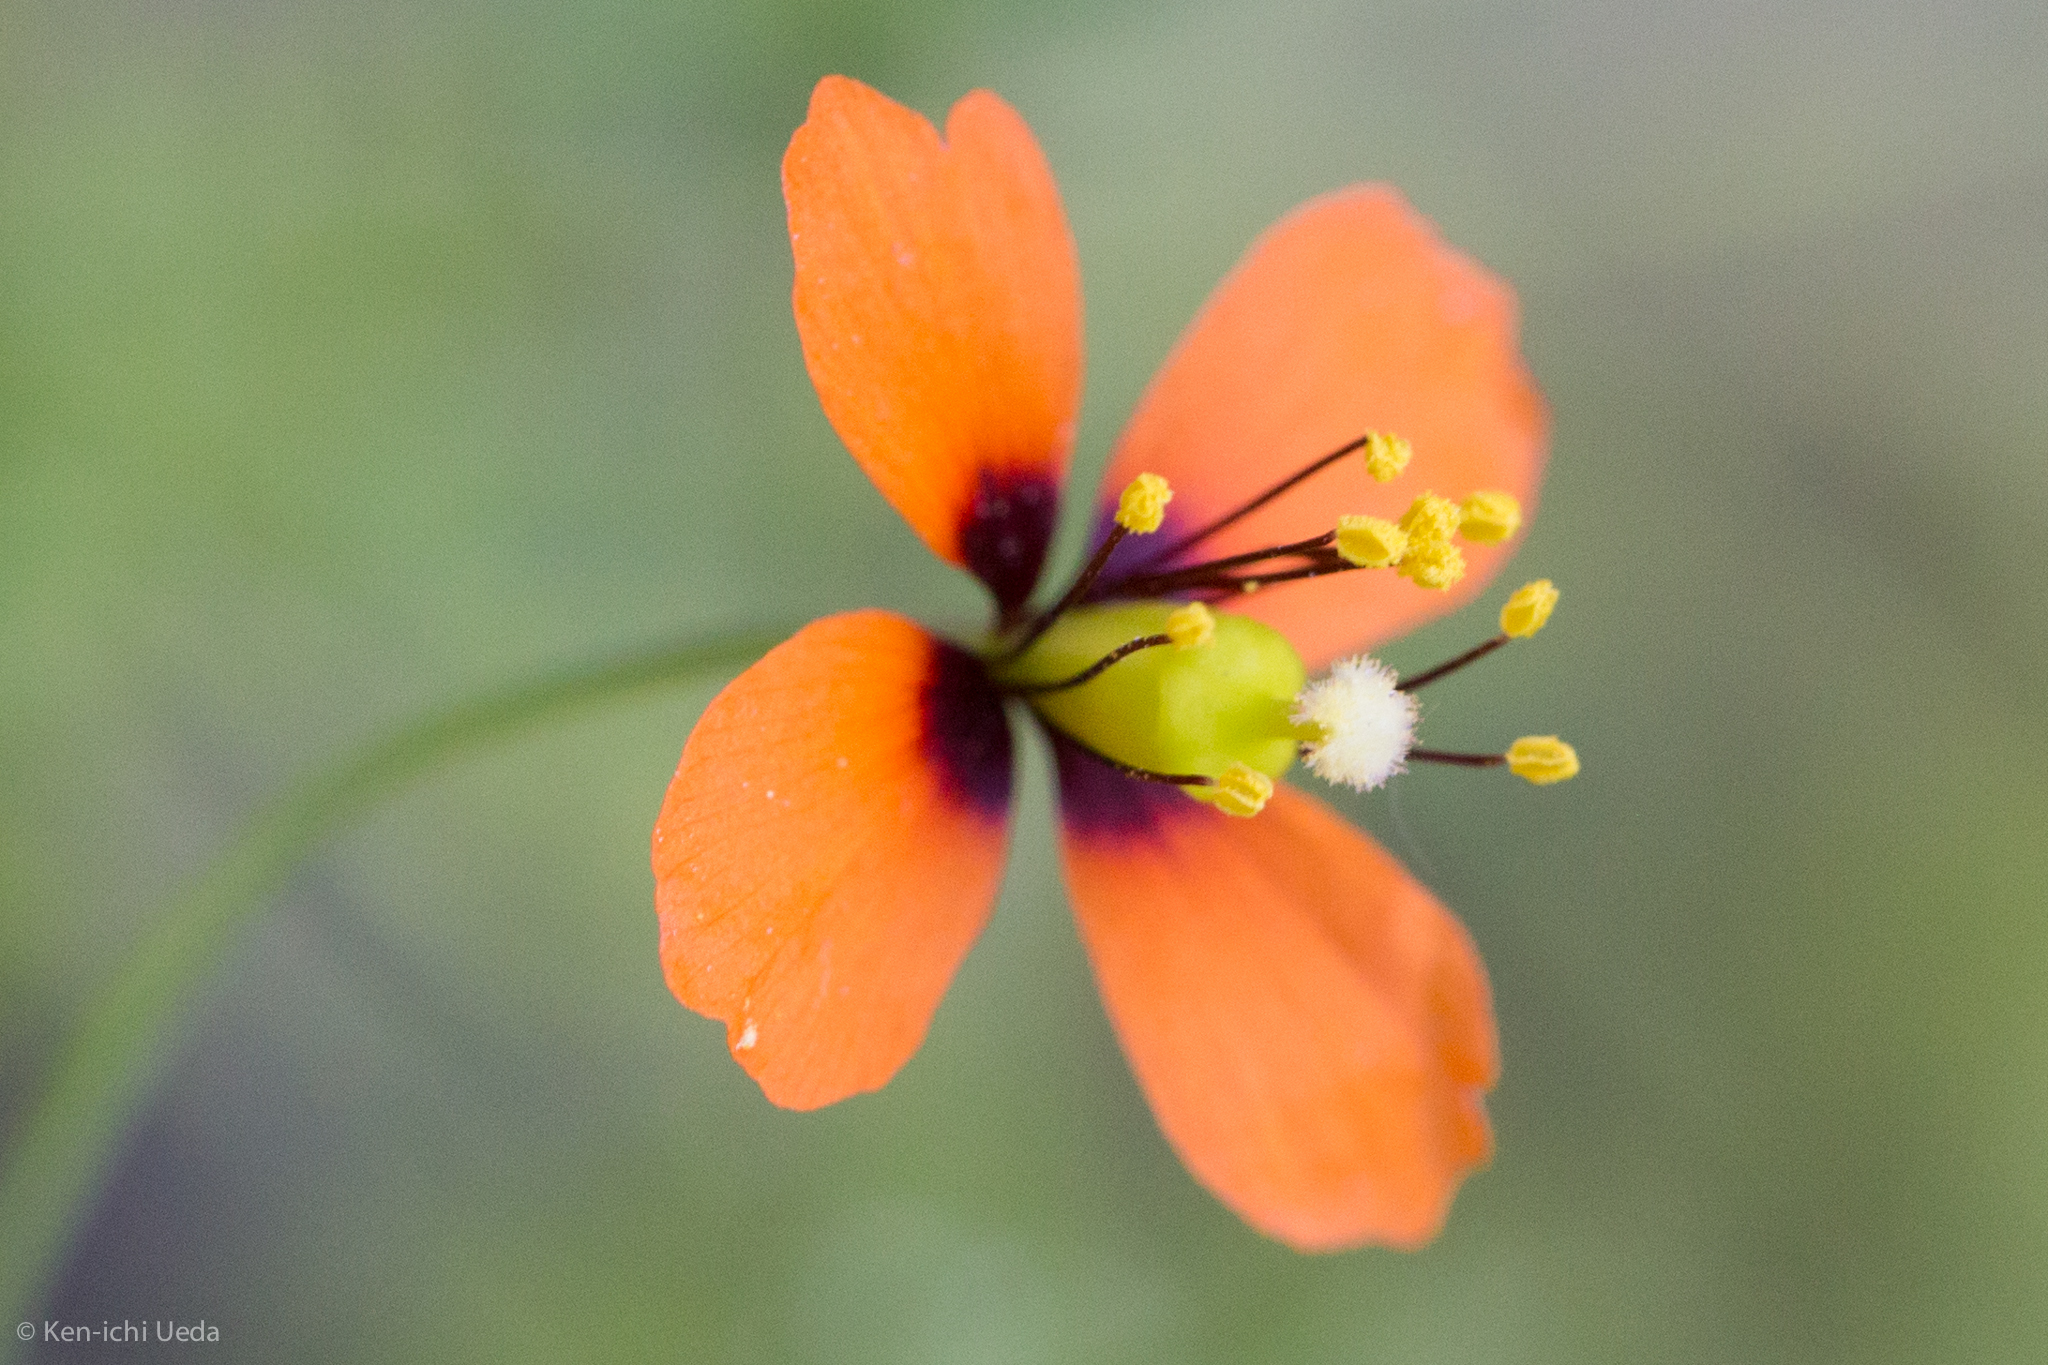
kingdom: Plantae
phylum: Tracheophyta
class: Magnoliopsida
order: Ranunculales
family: Papaveraceae
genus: Stylomecon
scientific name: Stylomecon heterophylla
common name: Flaming-poppy
